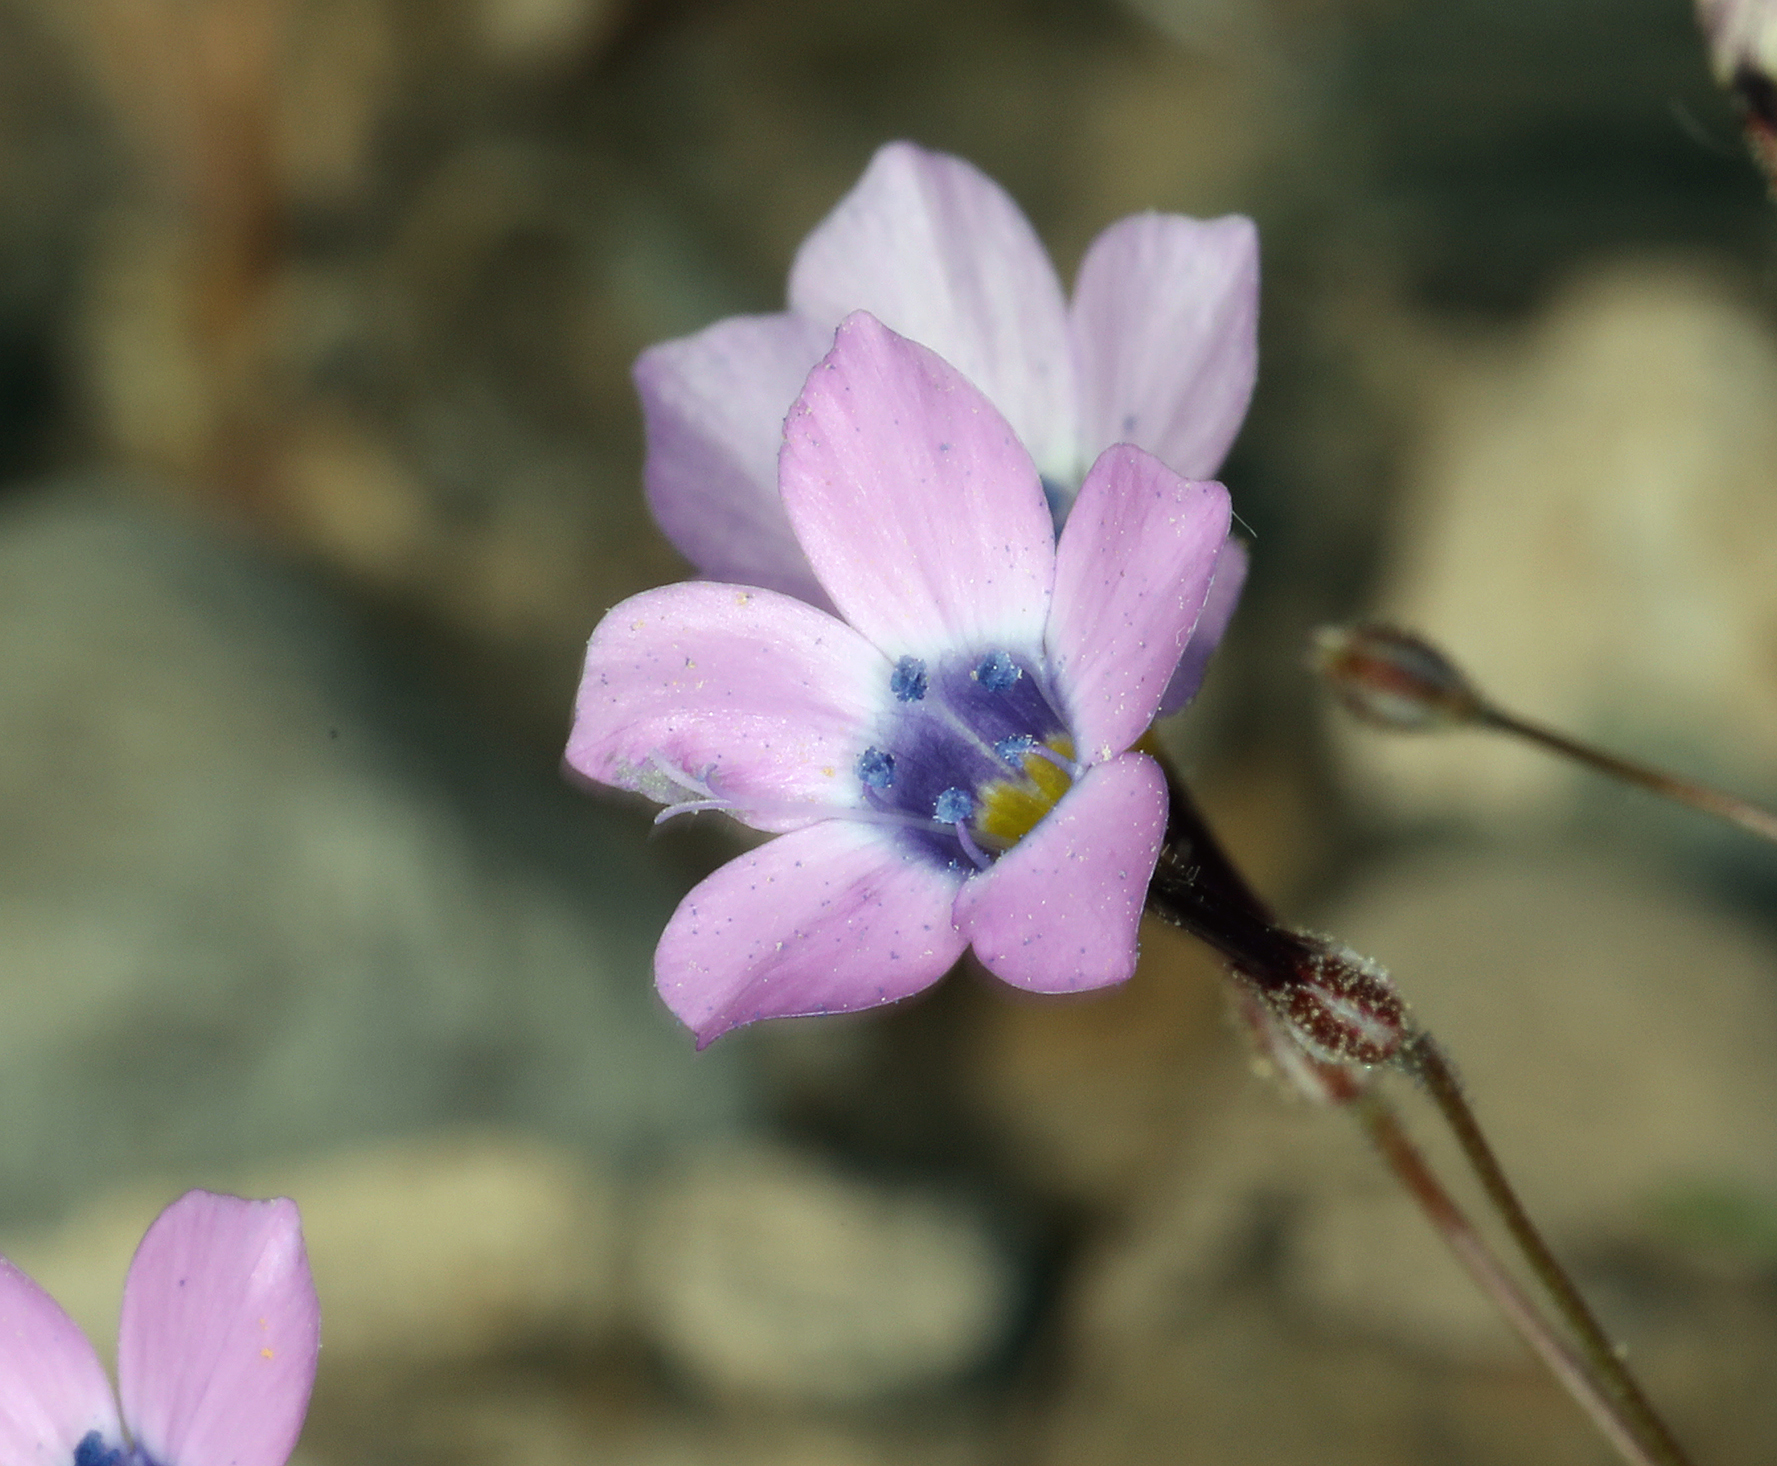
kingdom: Plantae
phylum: Tracheophyta
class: Magnoliopsida
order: Ericales
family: Polemoniaceae
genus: Gilia
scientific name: Gilia cana
